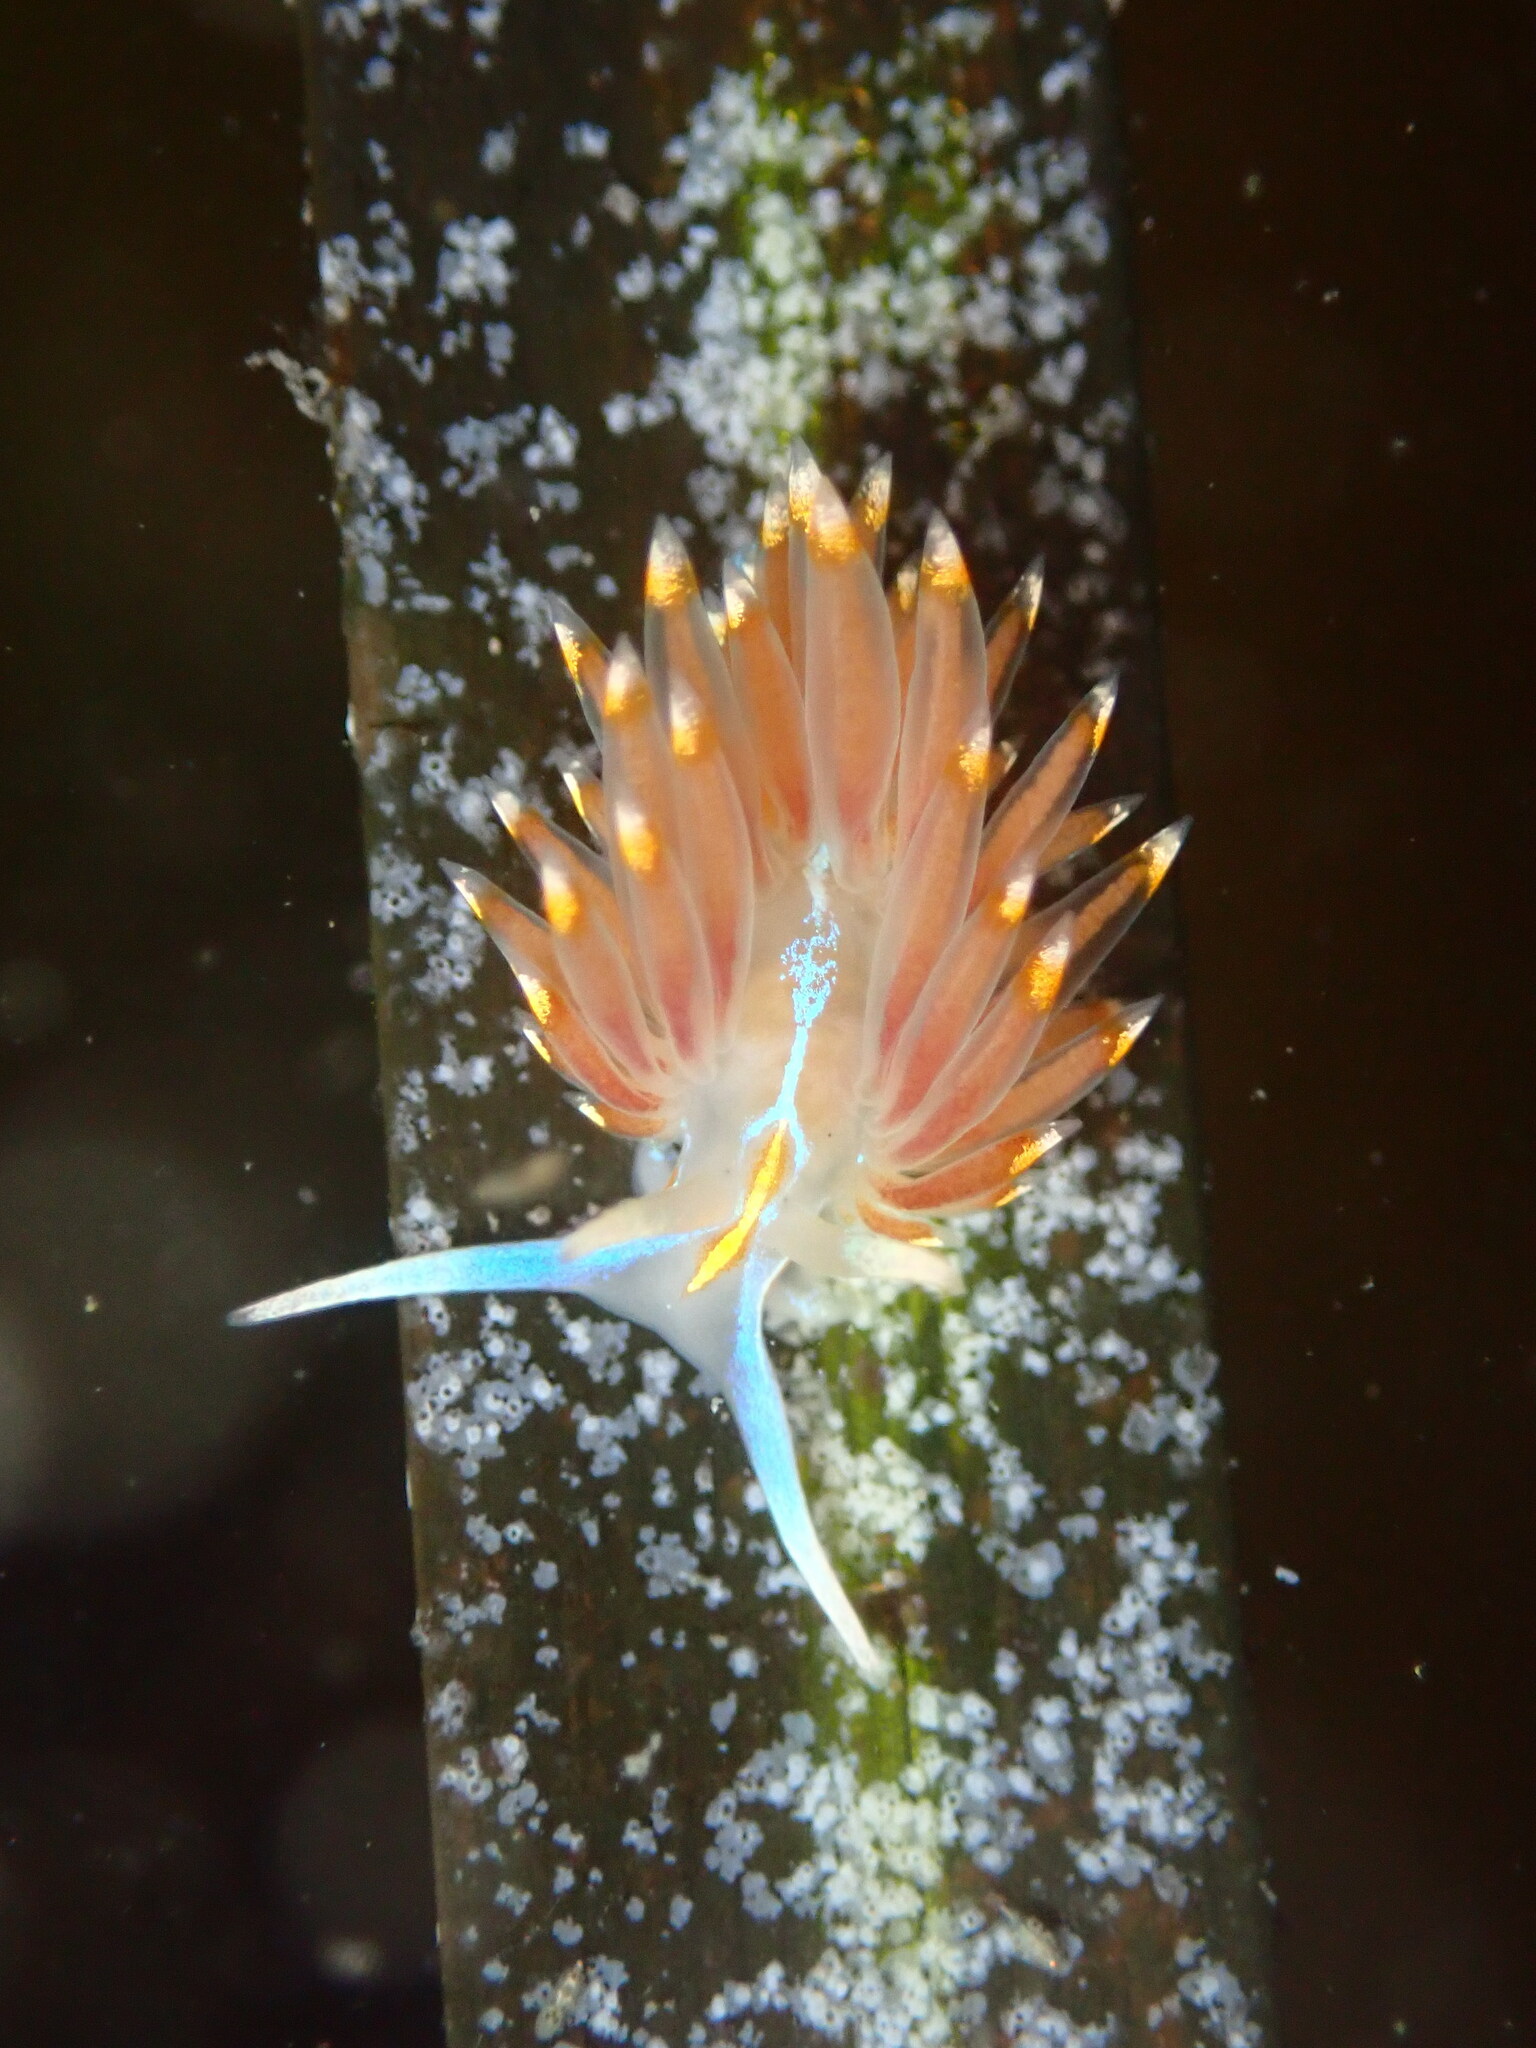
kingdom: Animalia
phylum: Mollusca
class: Gastropoda
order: Nudibranchia
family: Myrrhinidae
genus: Hermissenda
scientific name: Hermissenda opalescens
